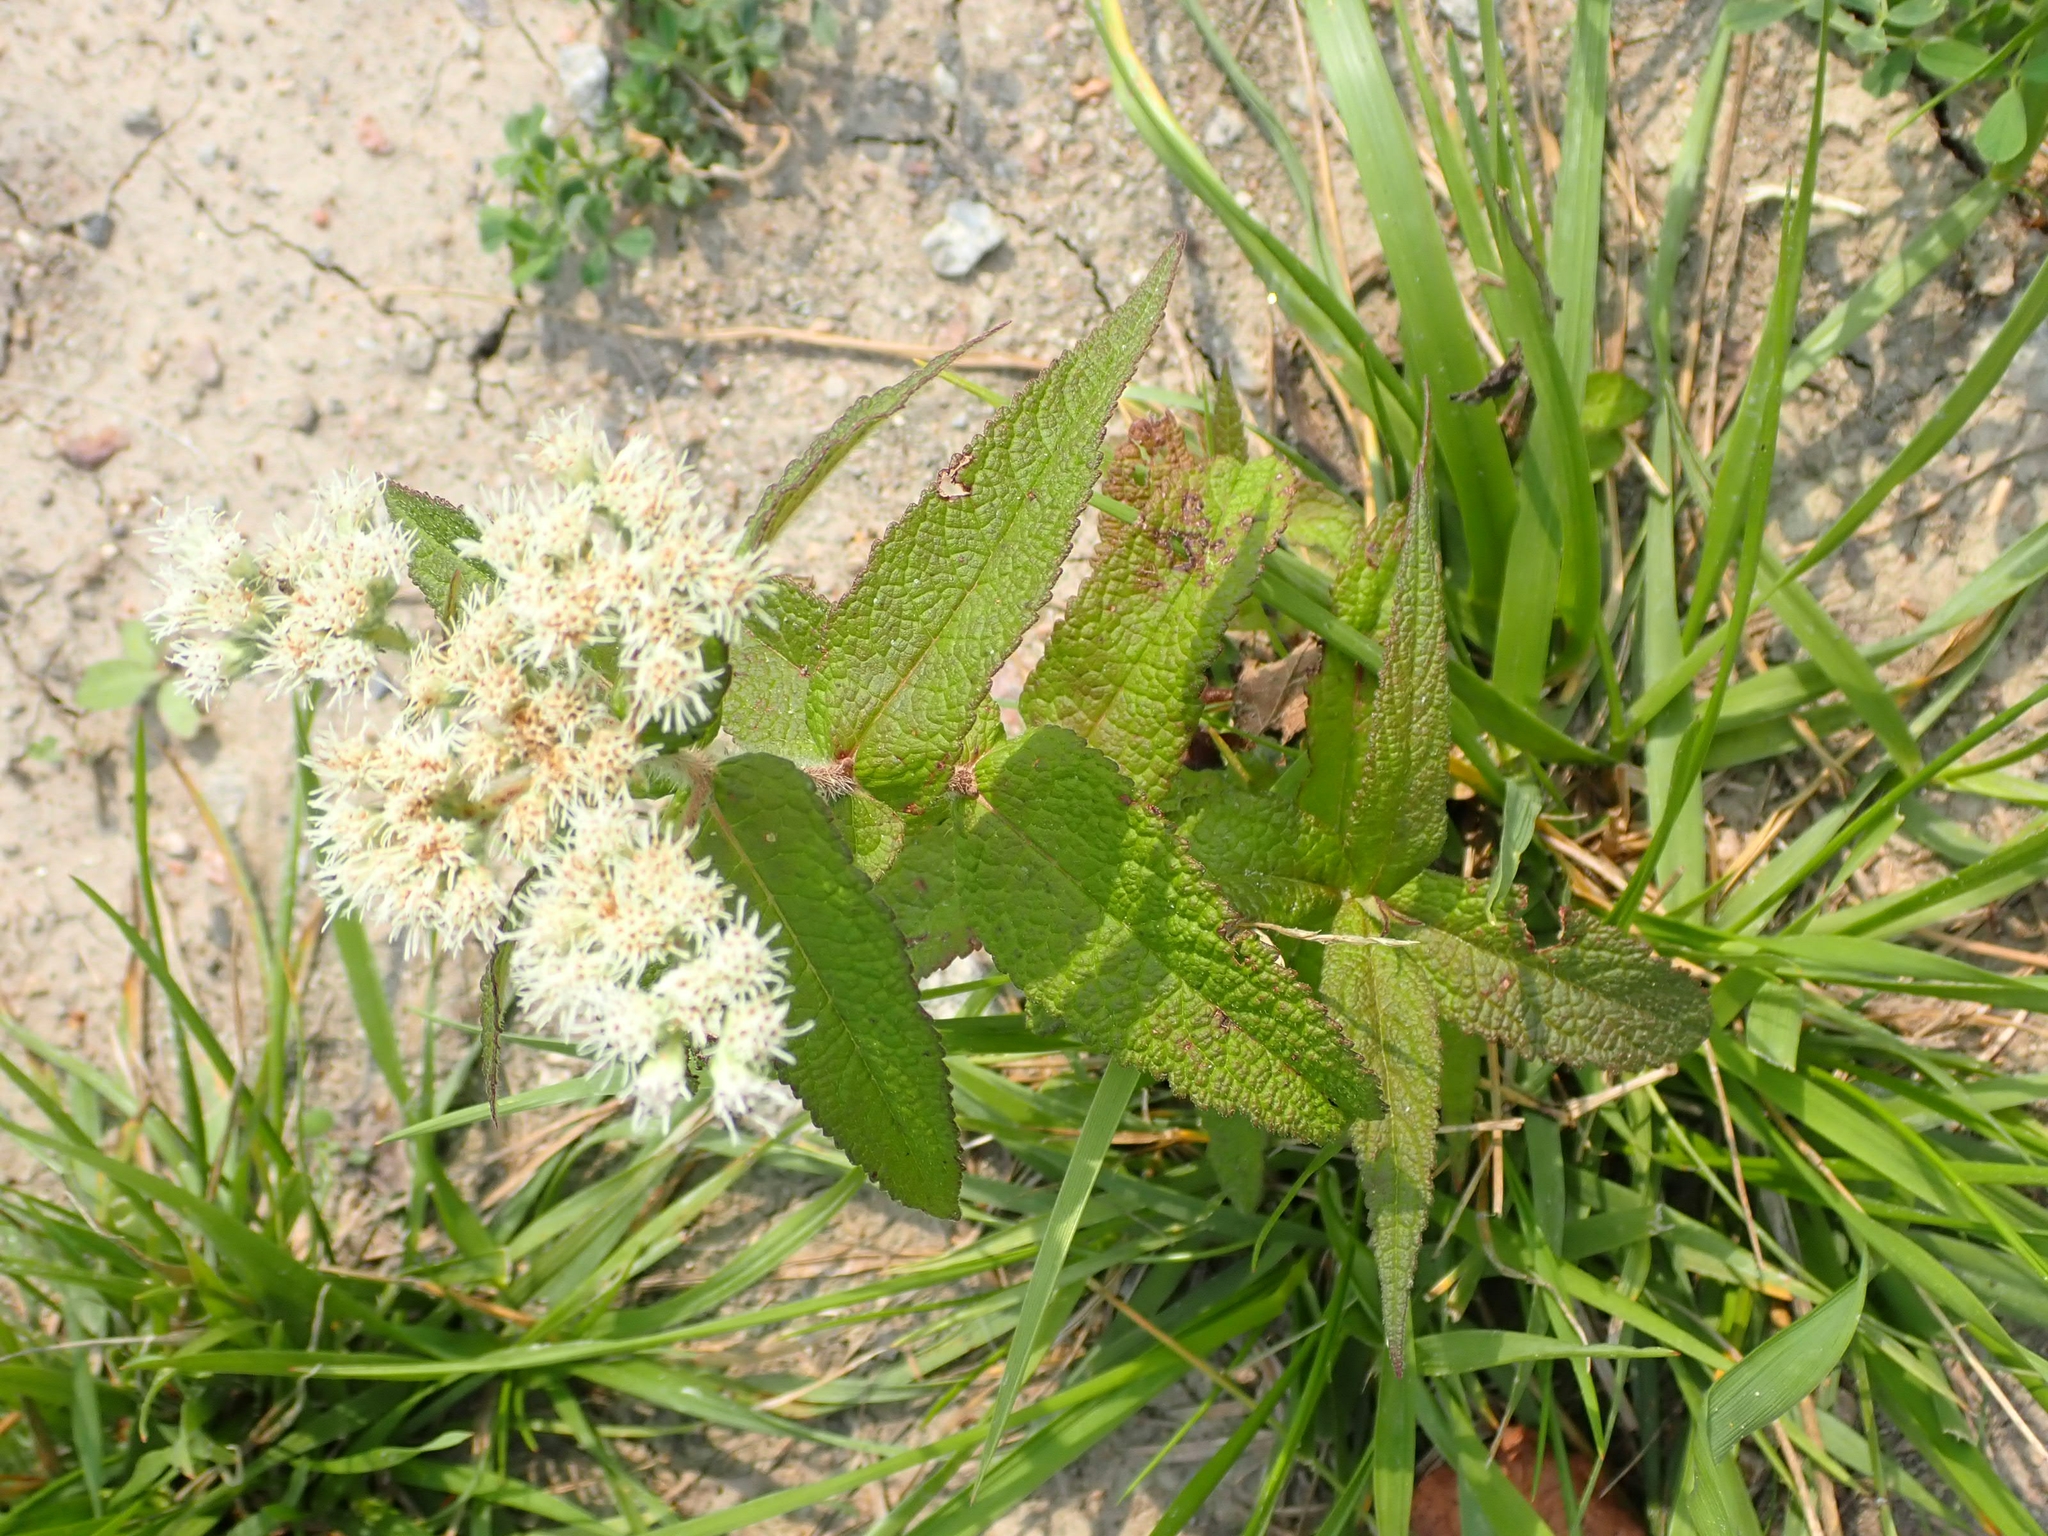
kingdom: Plantae
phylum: Tracheophyta
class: Magnoliopsida
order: Asterales
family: Asteraceae
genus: Eupatorium
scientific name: Eupatorium perfoliatum
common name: Boneset
